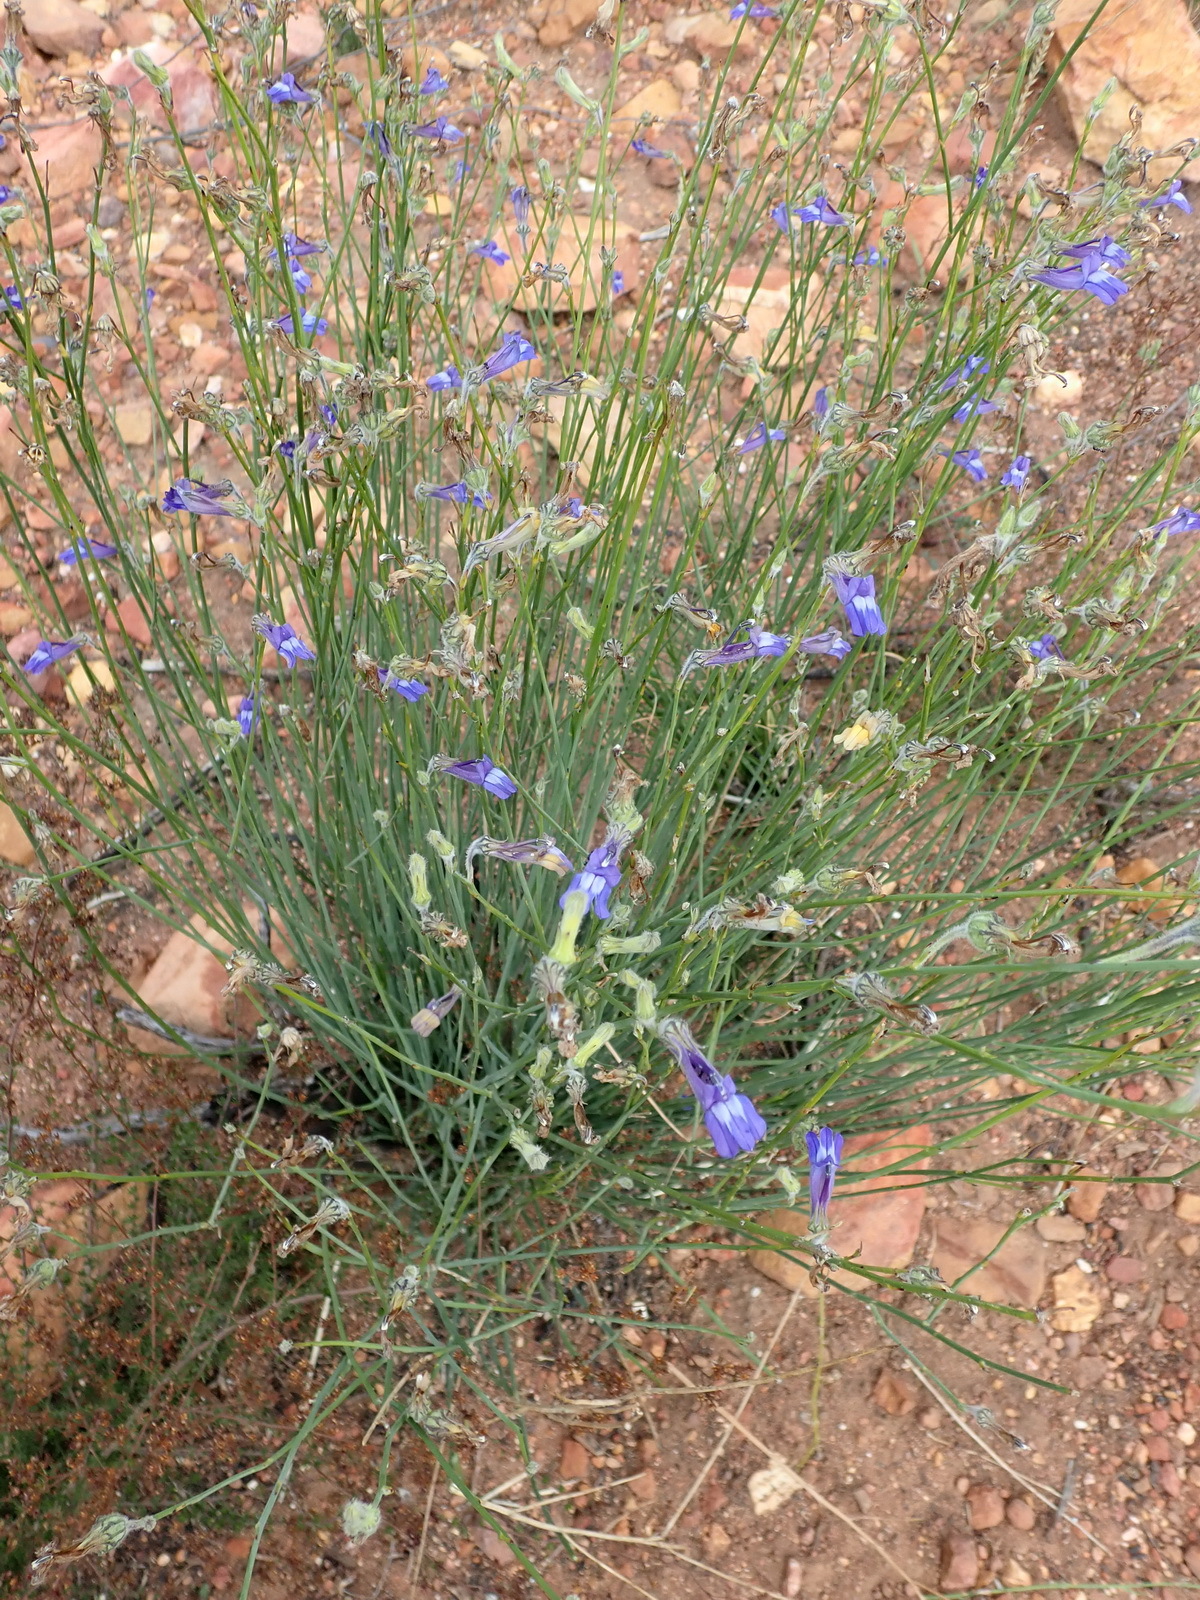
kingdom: Plantae
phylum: Tracheophyta
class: Magnoliopsida
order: Asterales
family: Campanulaceae
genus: Lobelia
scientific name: Lobelia linearis
